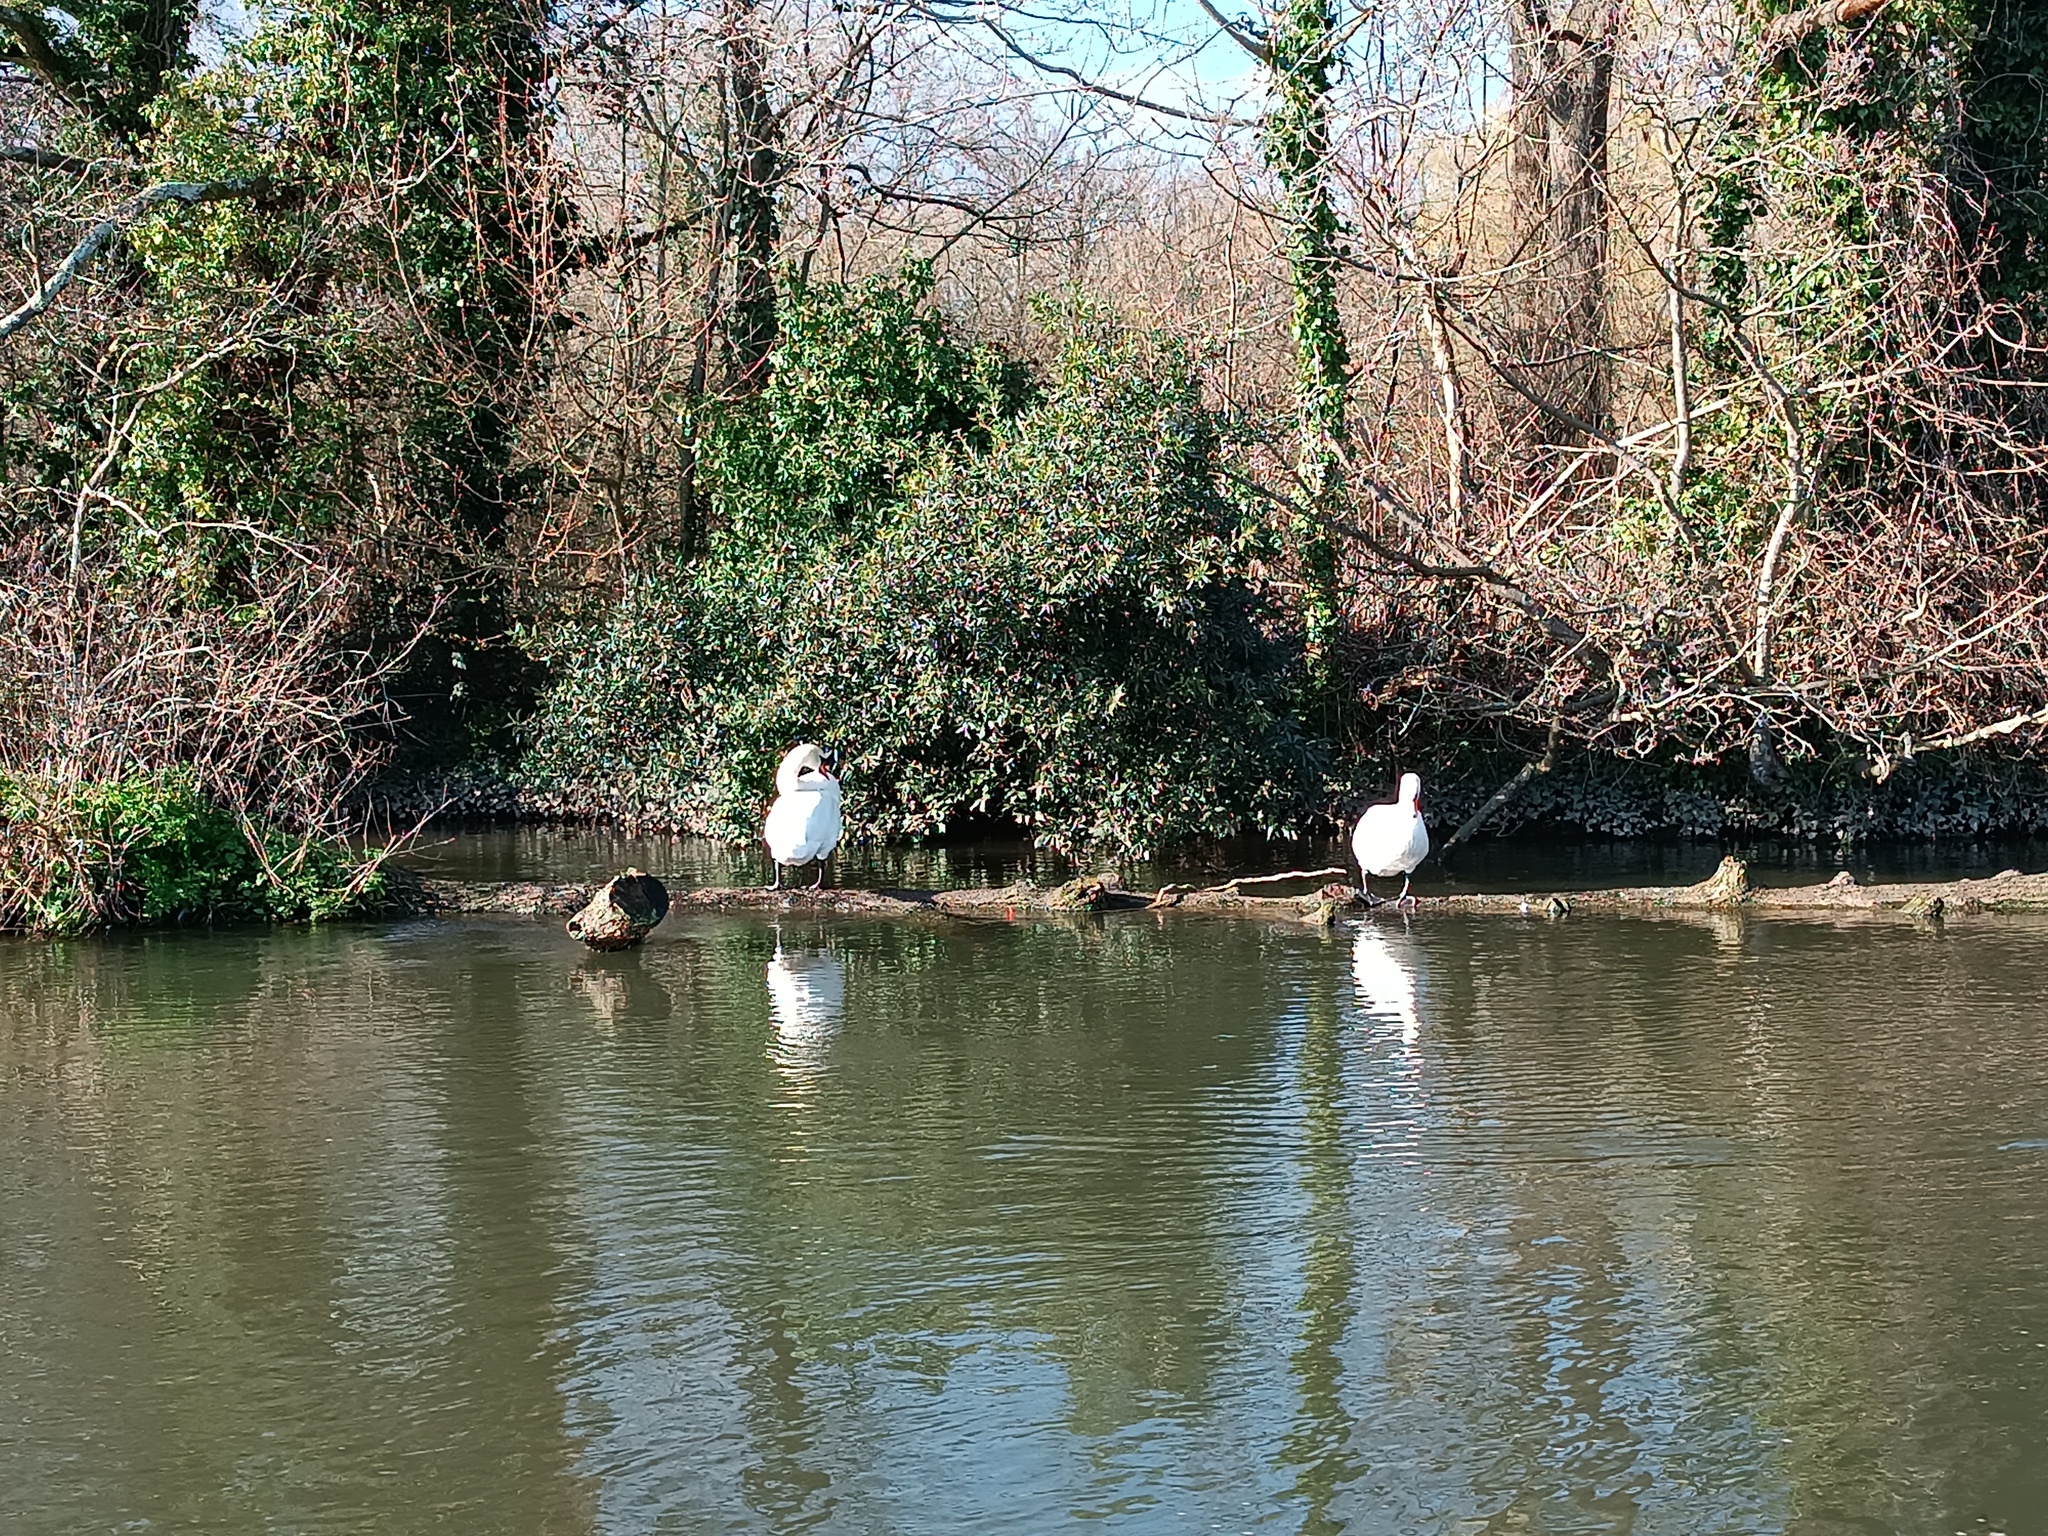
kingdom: Animalia
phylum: Chordata
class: Aves
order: Anseriformes
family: Anatidae
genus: Cygnus
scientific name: Cygnus olor
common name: Mute swan
